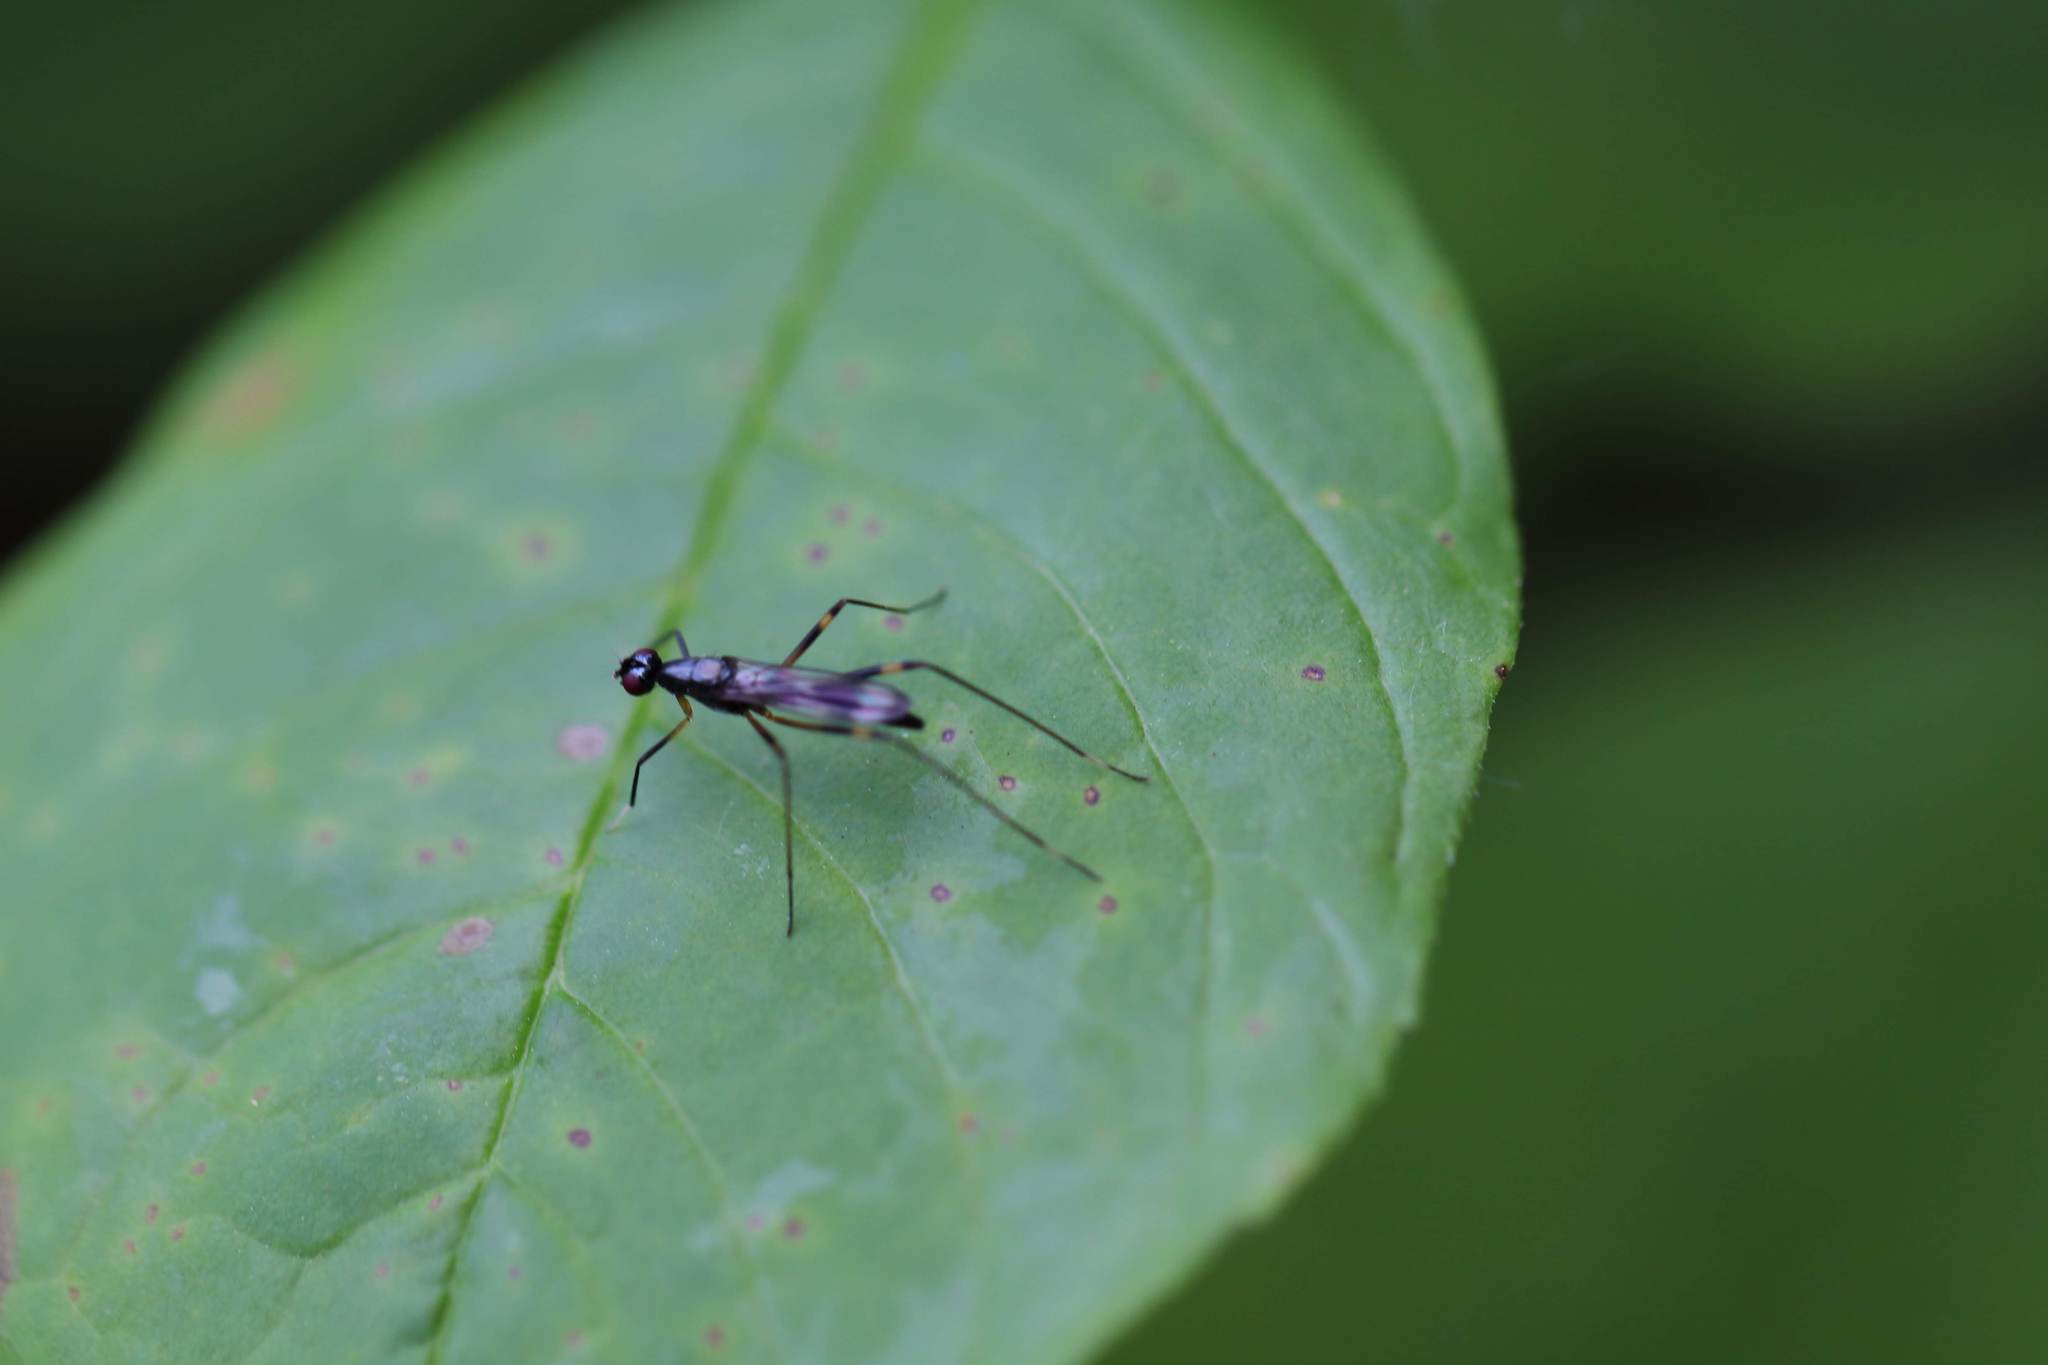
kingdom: Animalia
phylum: Arthropoda
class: Insecta
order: Diptera
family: Micropezidae
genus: Rainieria
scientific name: Rainieria antennaepes
